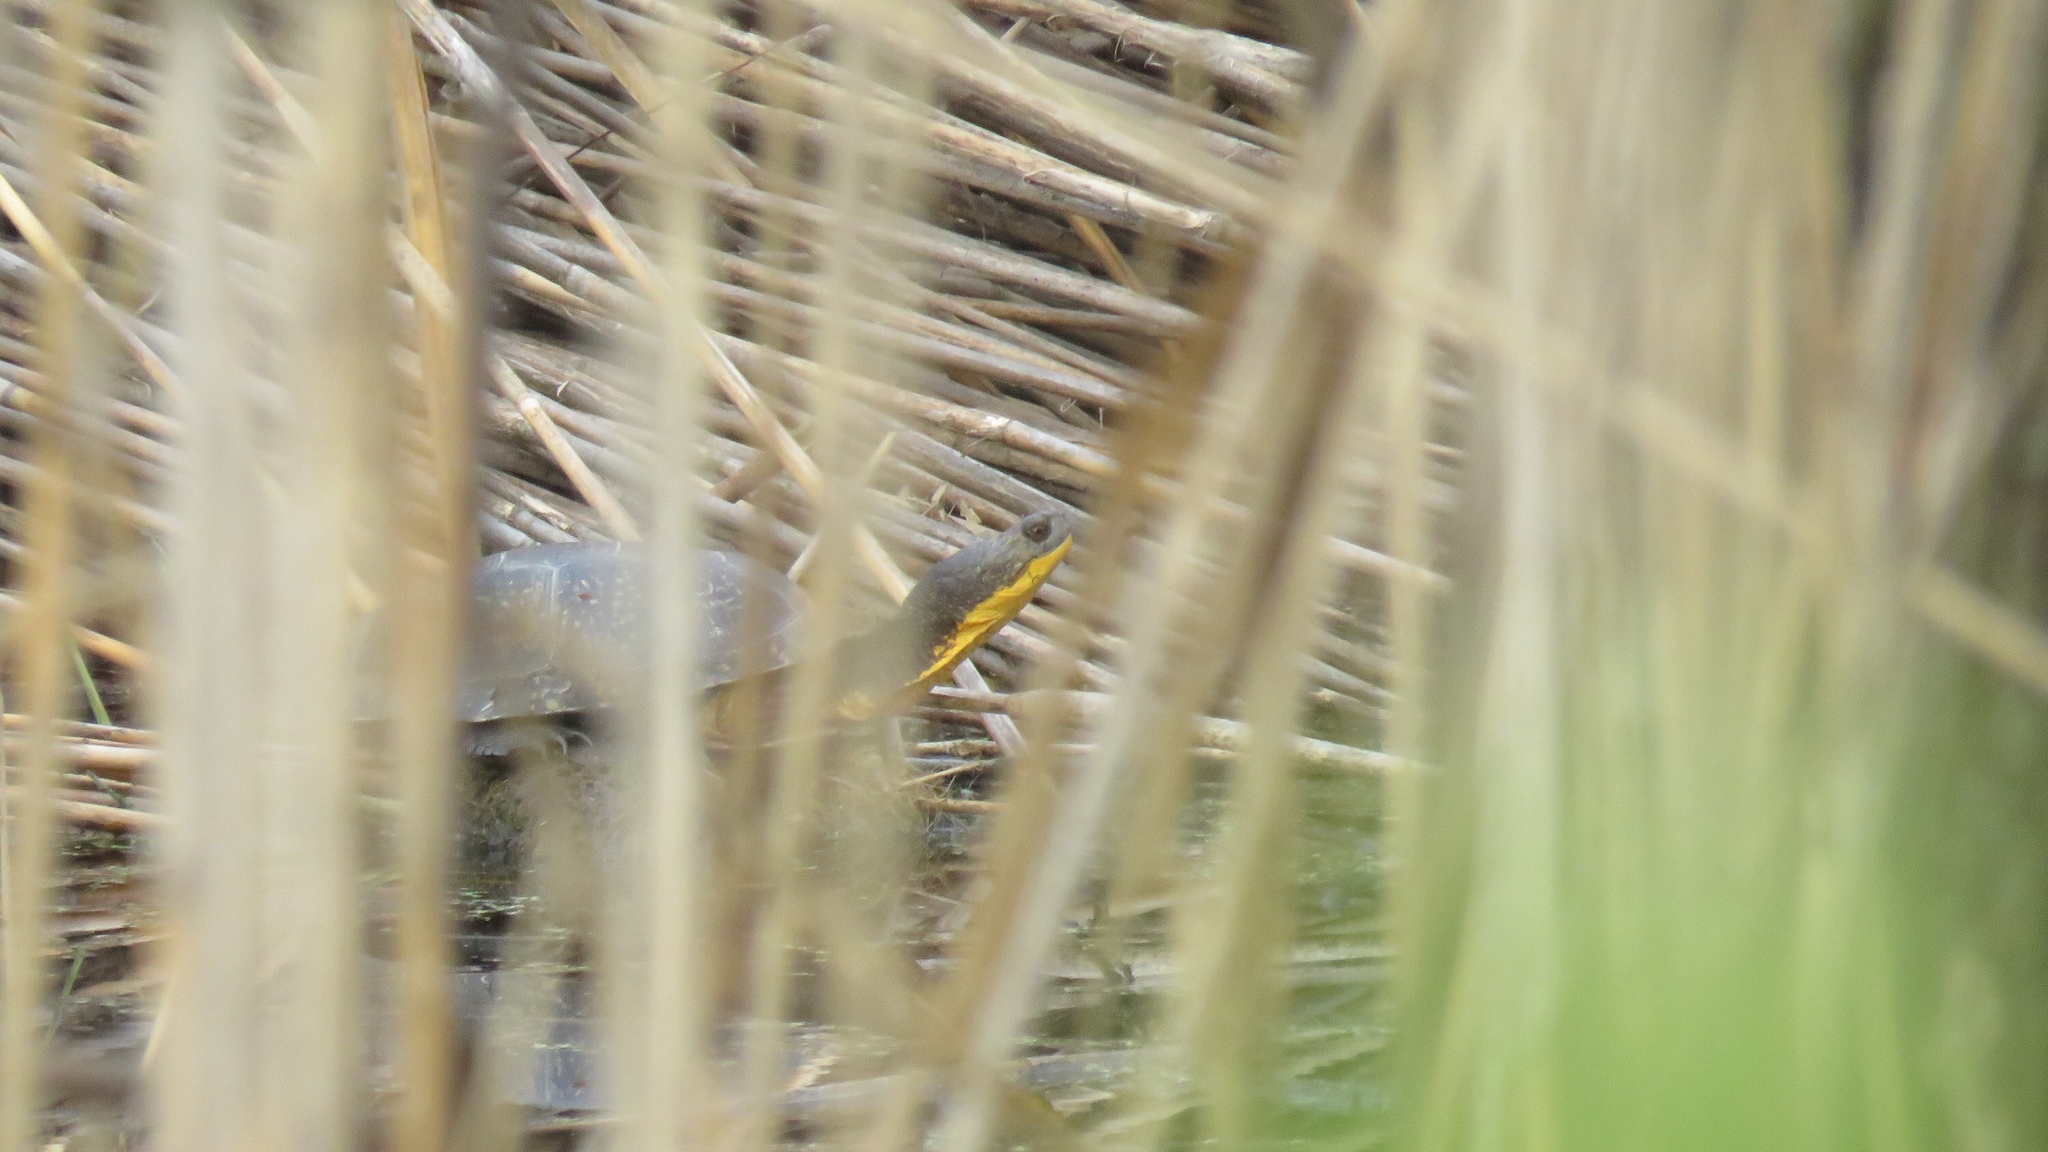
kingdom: Animalia
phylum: Chordata
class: Testudines
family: Emydidae
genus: Emys
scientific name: Emys blandingii
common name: Blanding's turtle
